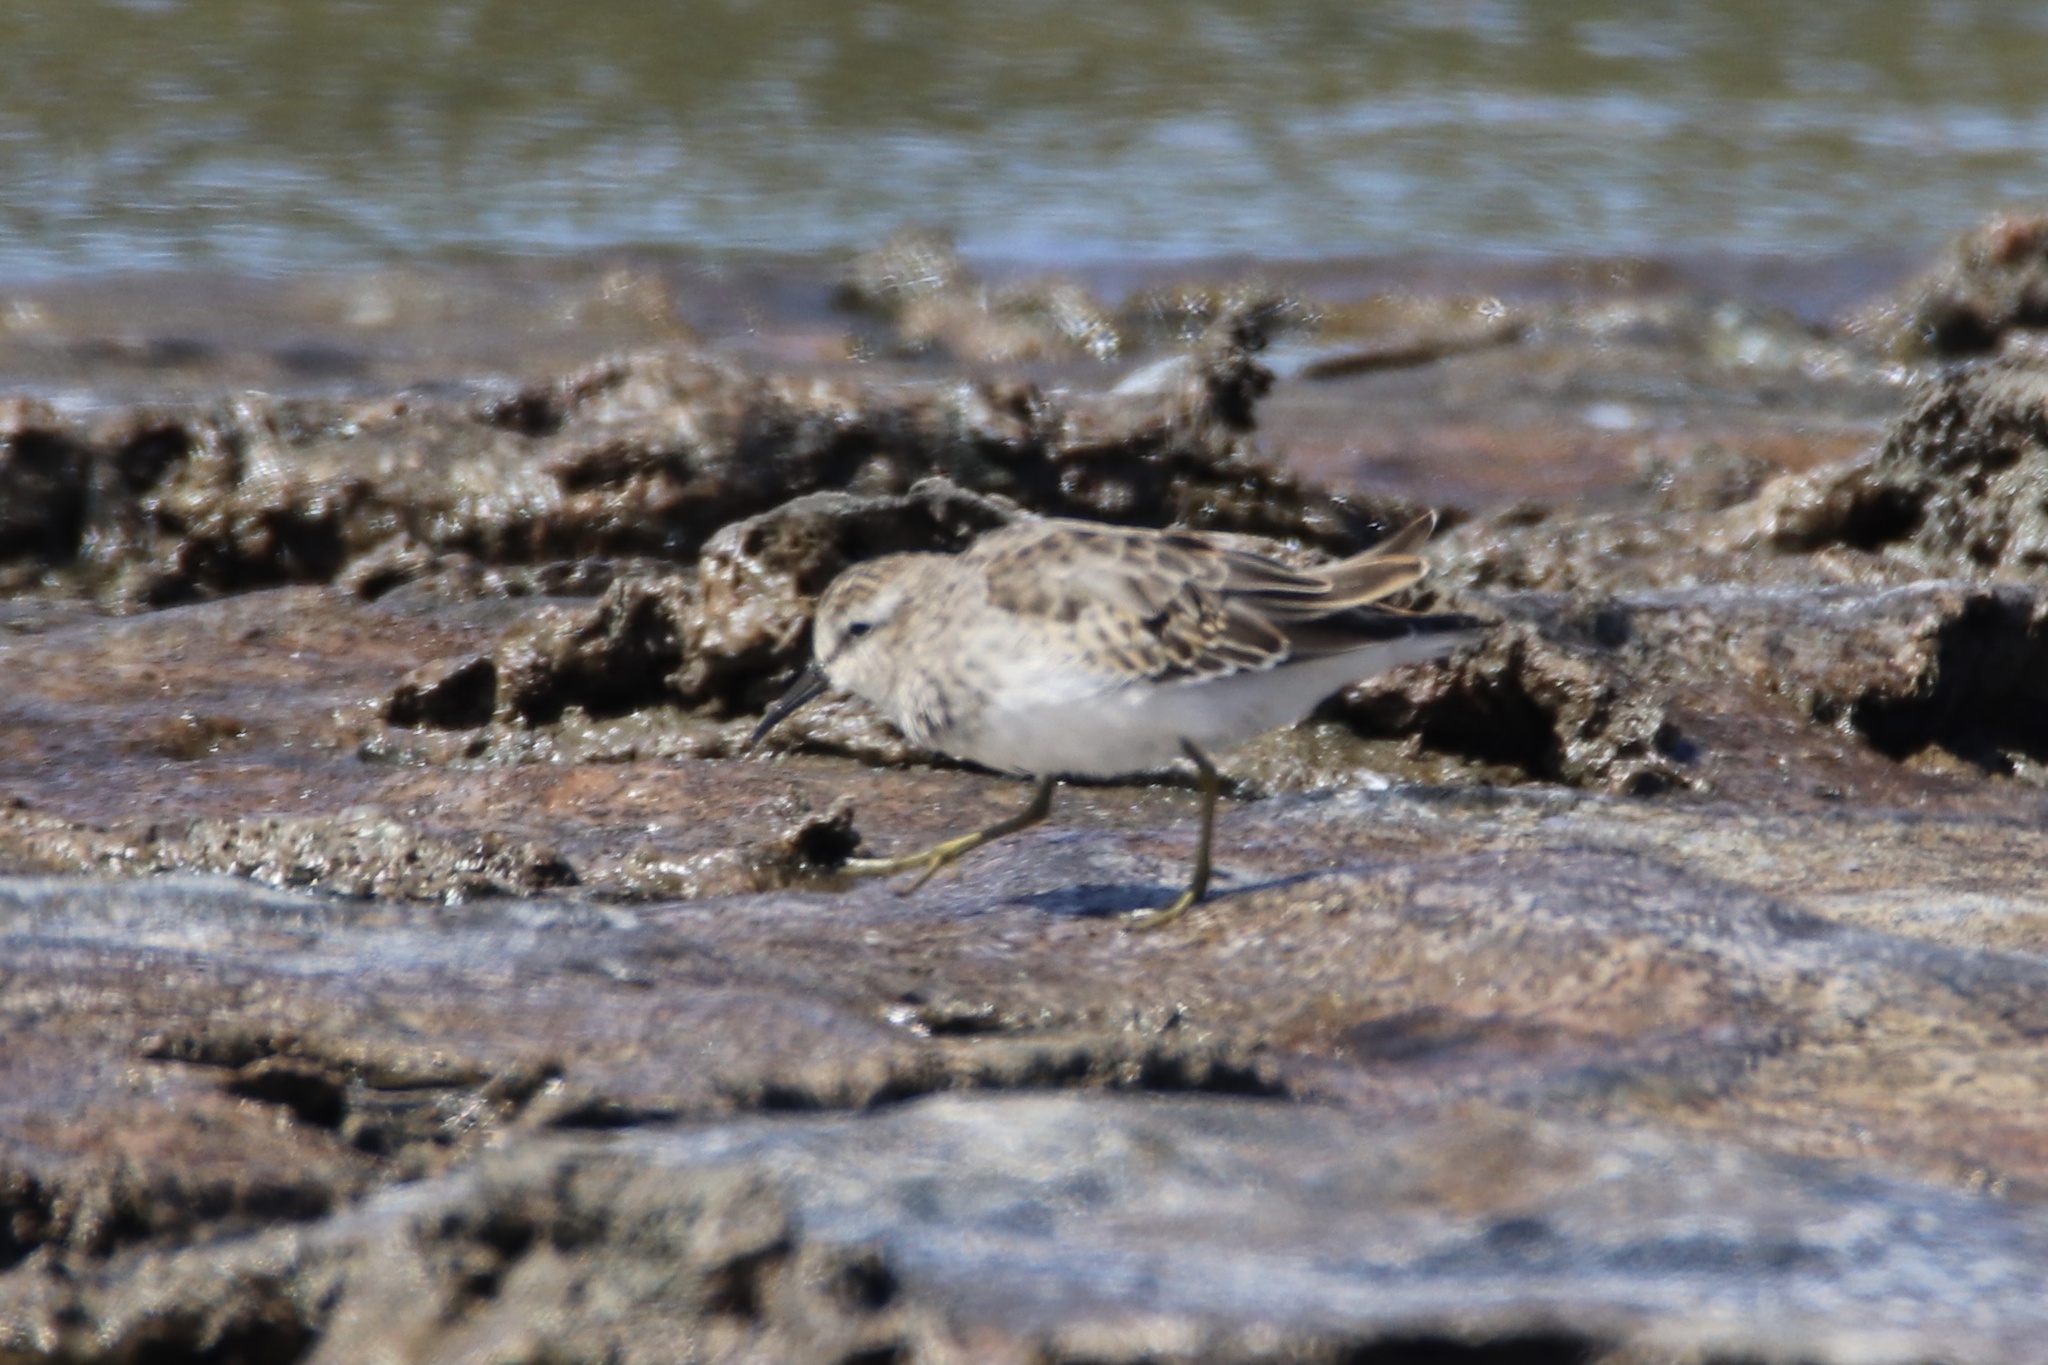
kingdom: Animalia
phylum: Chordata
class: Aves
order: Charadriiformes
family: Scolopacidae
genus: Calidris
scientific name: Calidris minutilla
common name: Least sandpiper
